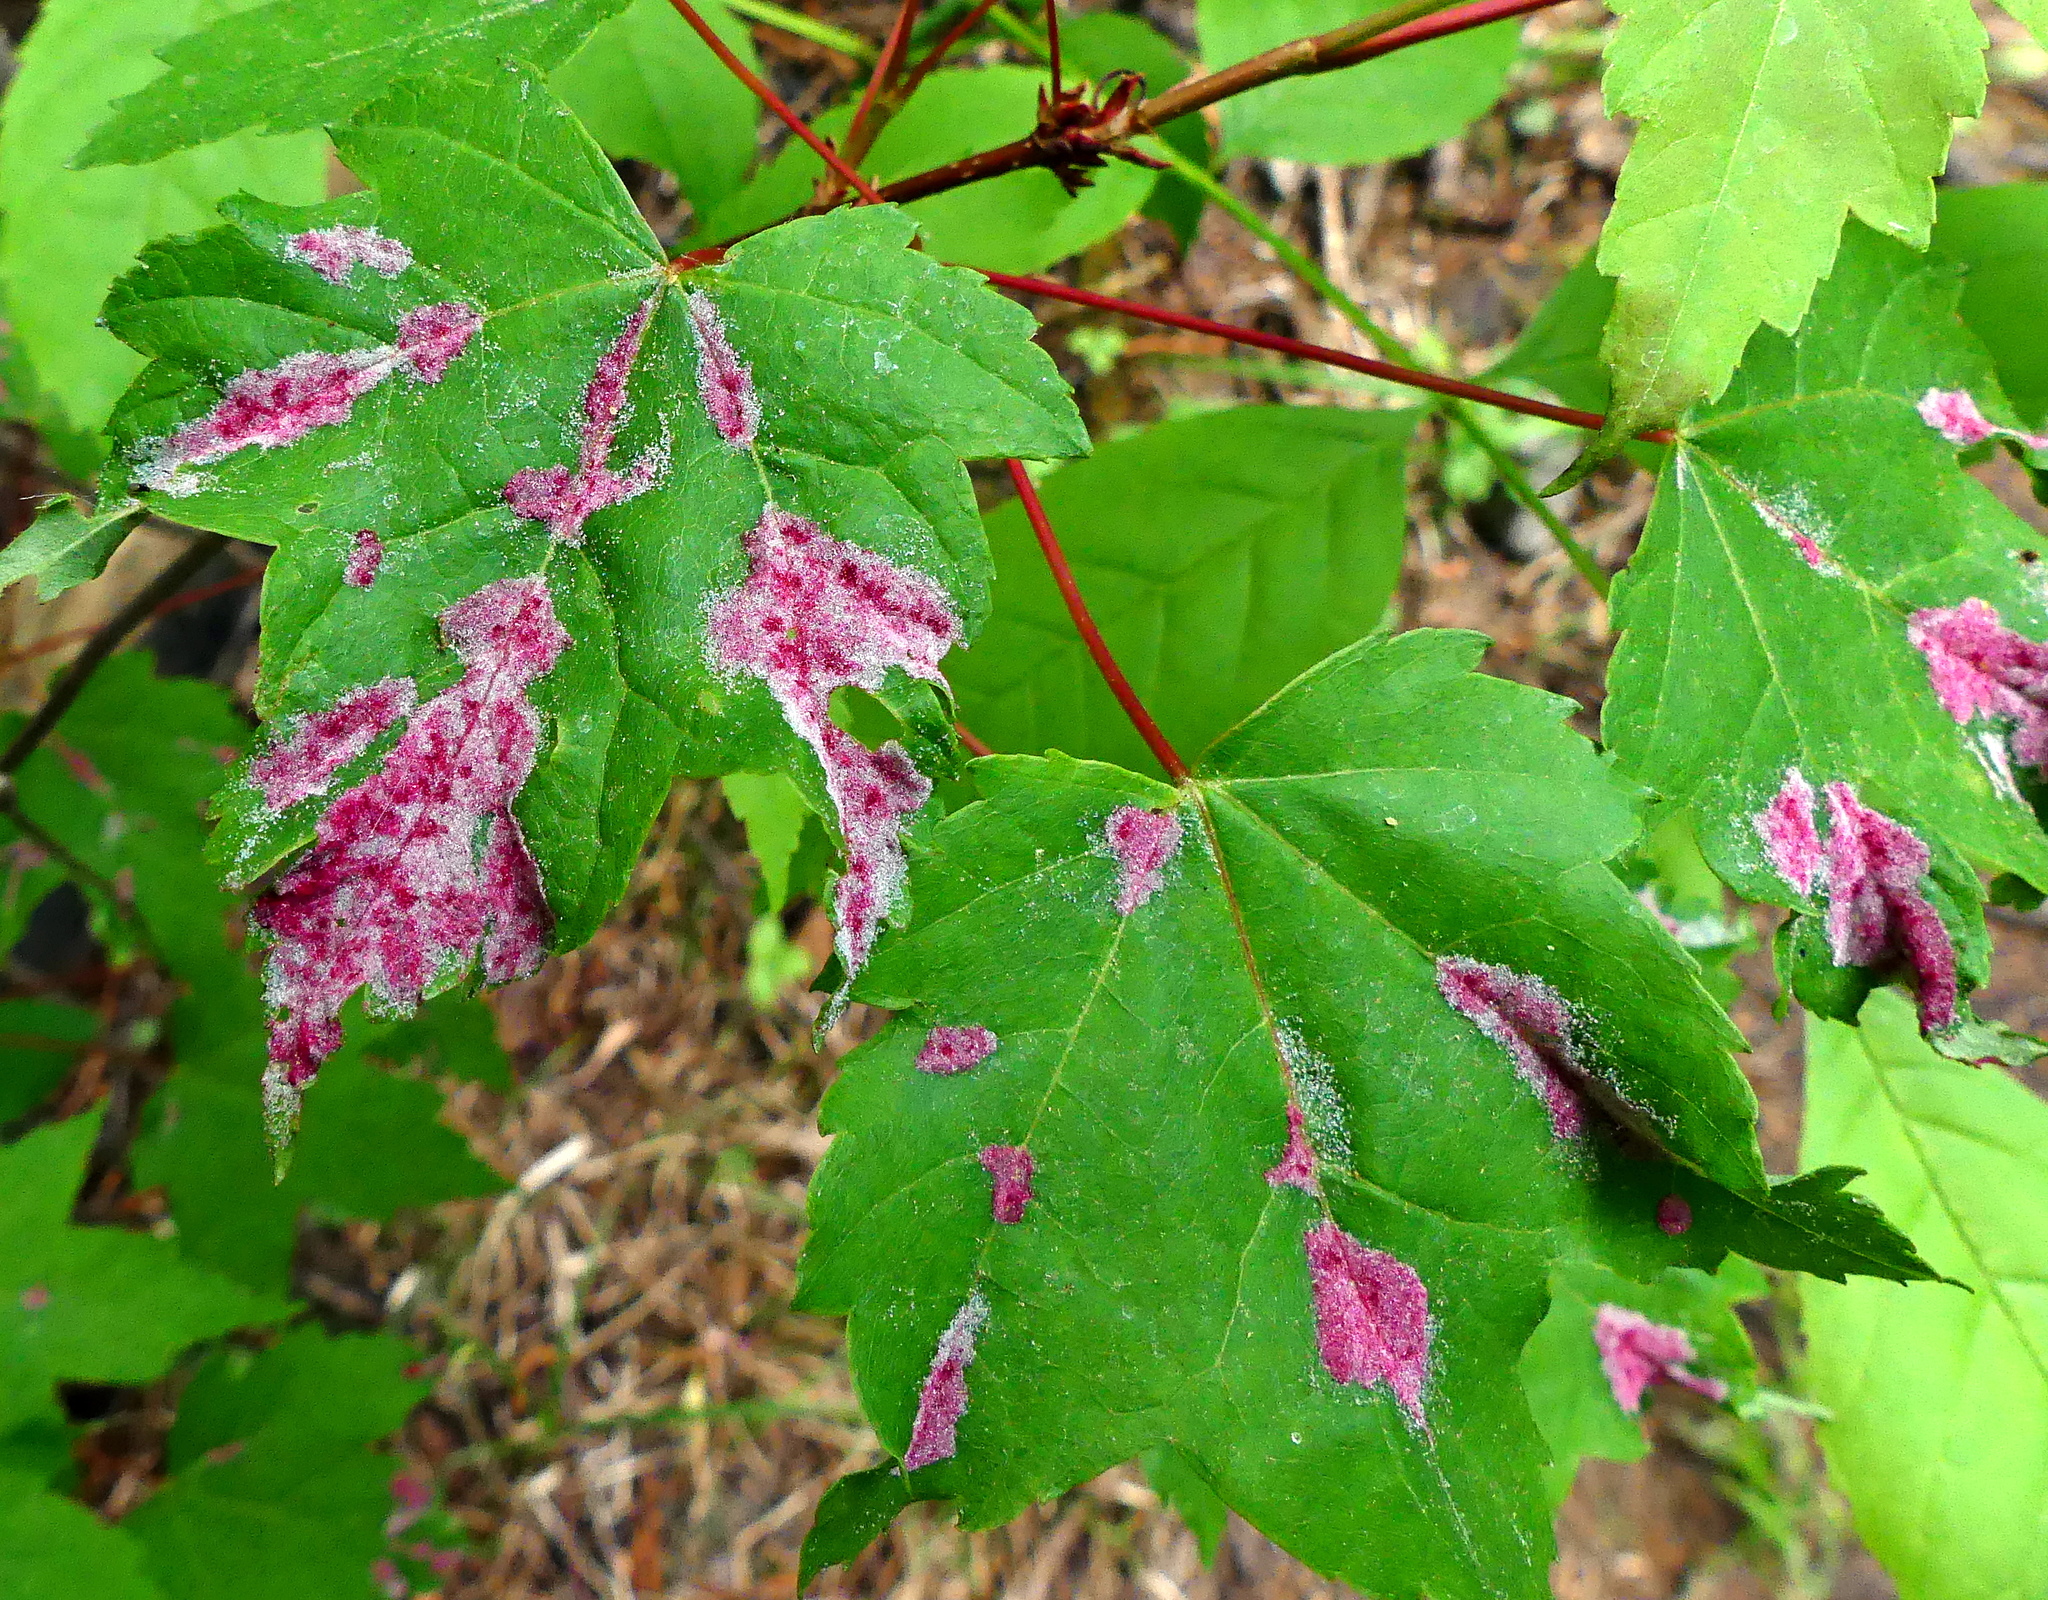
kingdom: Animalia
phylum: Arthropoda
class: Arachnida
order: Trombidiformes
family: Eriophyidae
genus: Aculus
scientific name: Aculus
